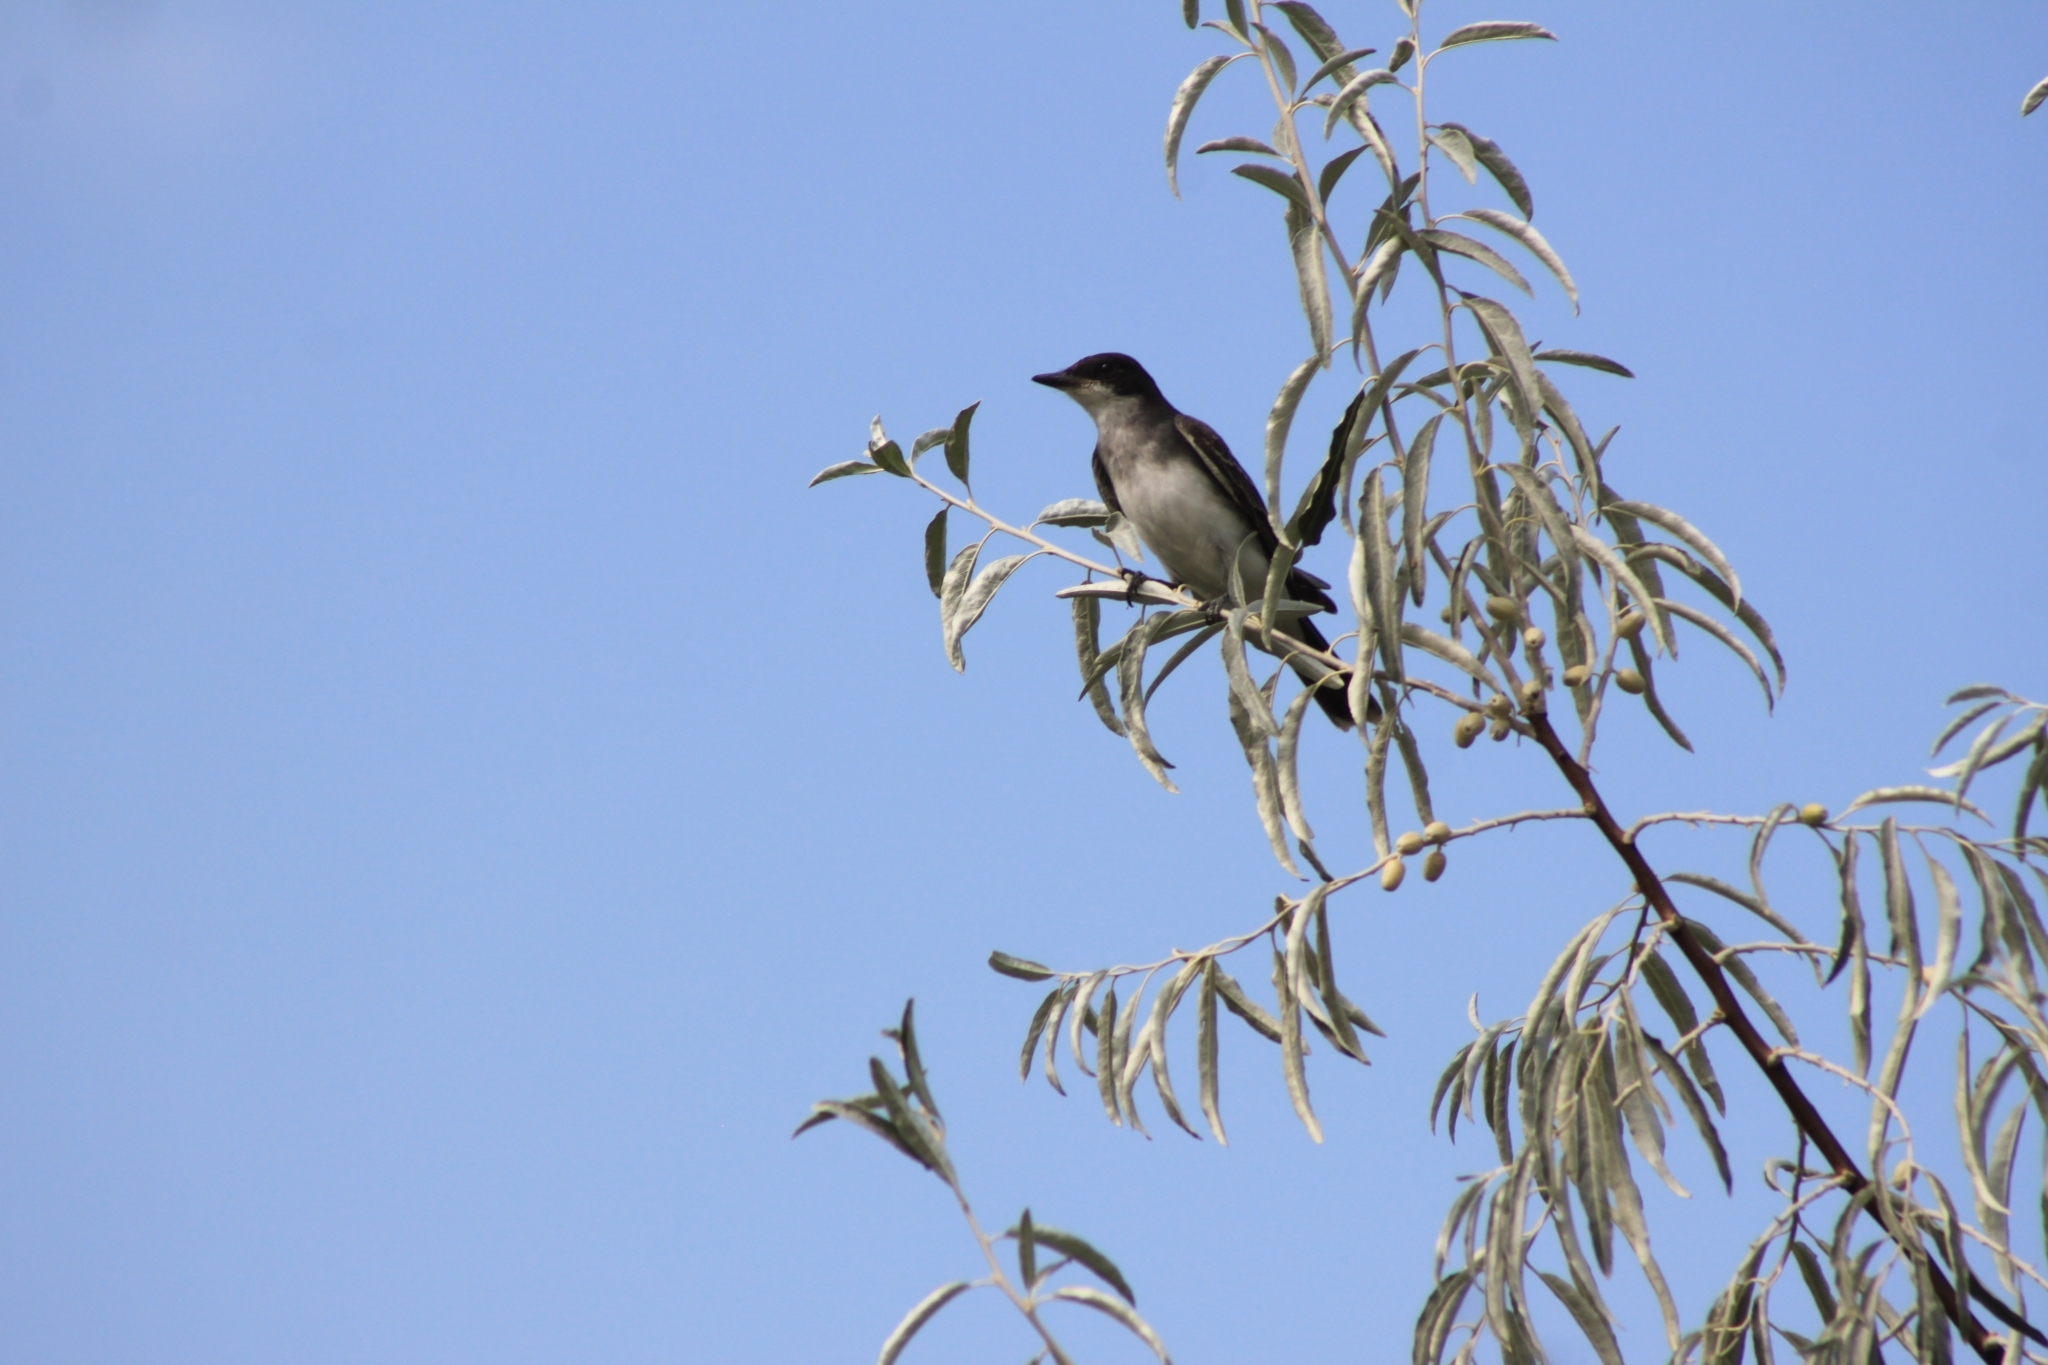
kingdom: Animalia
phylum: Chordata
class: Aves
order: Passeriformes
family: Tyrannidae
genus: Tyrannus
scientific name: Tyrannus tyrannus
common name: Eastern kingbird
